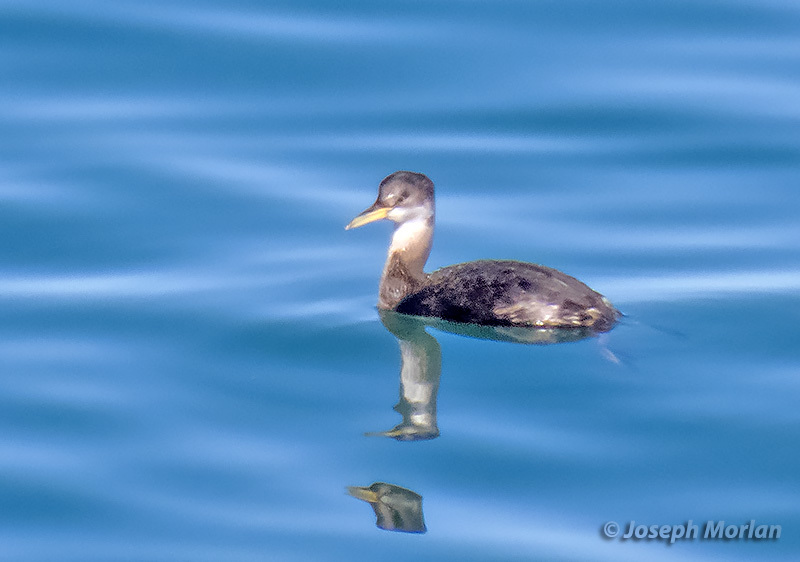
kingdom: Animalia
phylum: Chordata
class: Aves
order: Podicipediformes
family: Podicipedidae
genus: Podiceps
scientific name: Podiceps grisegena
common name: Red-necked grebe
